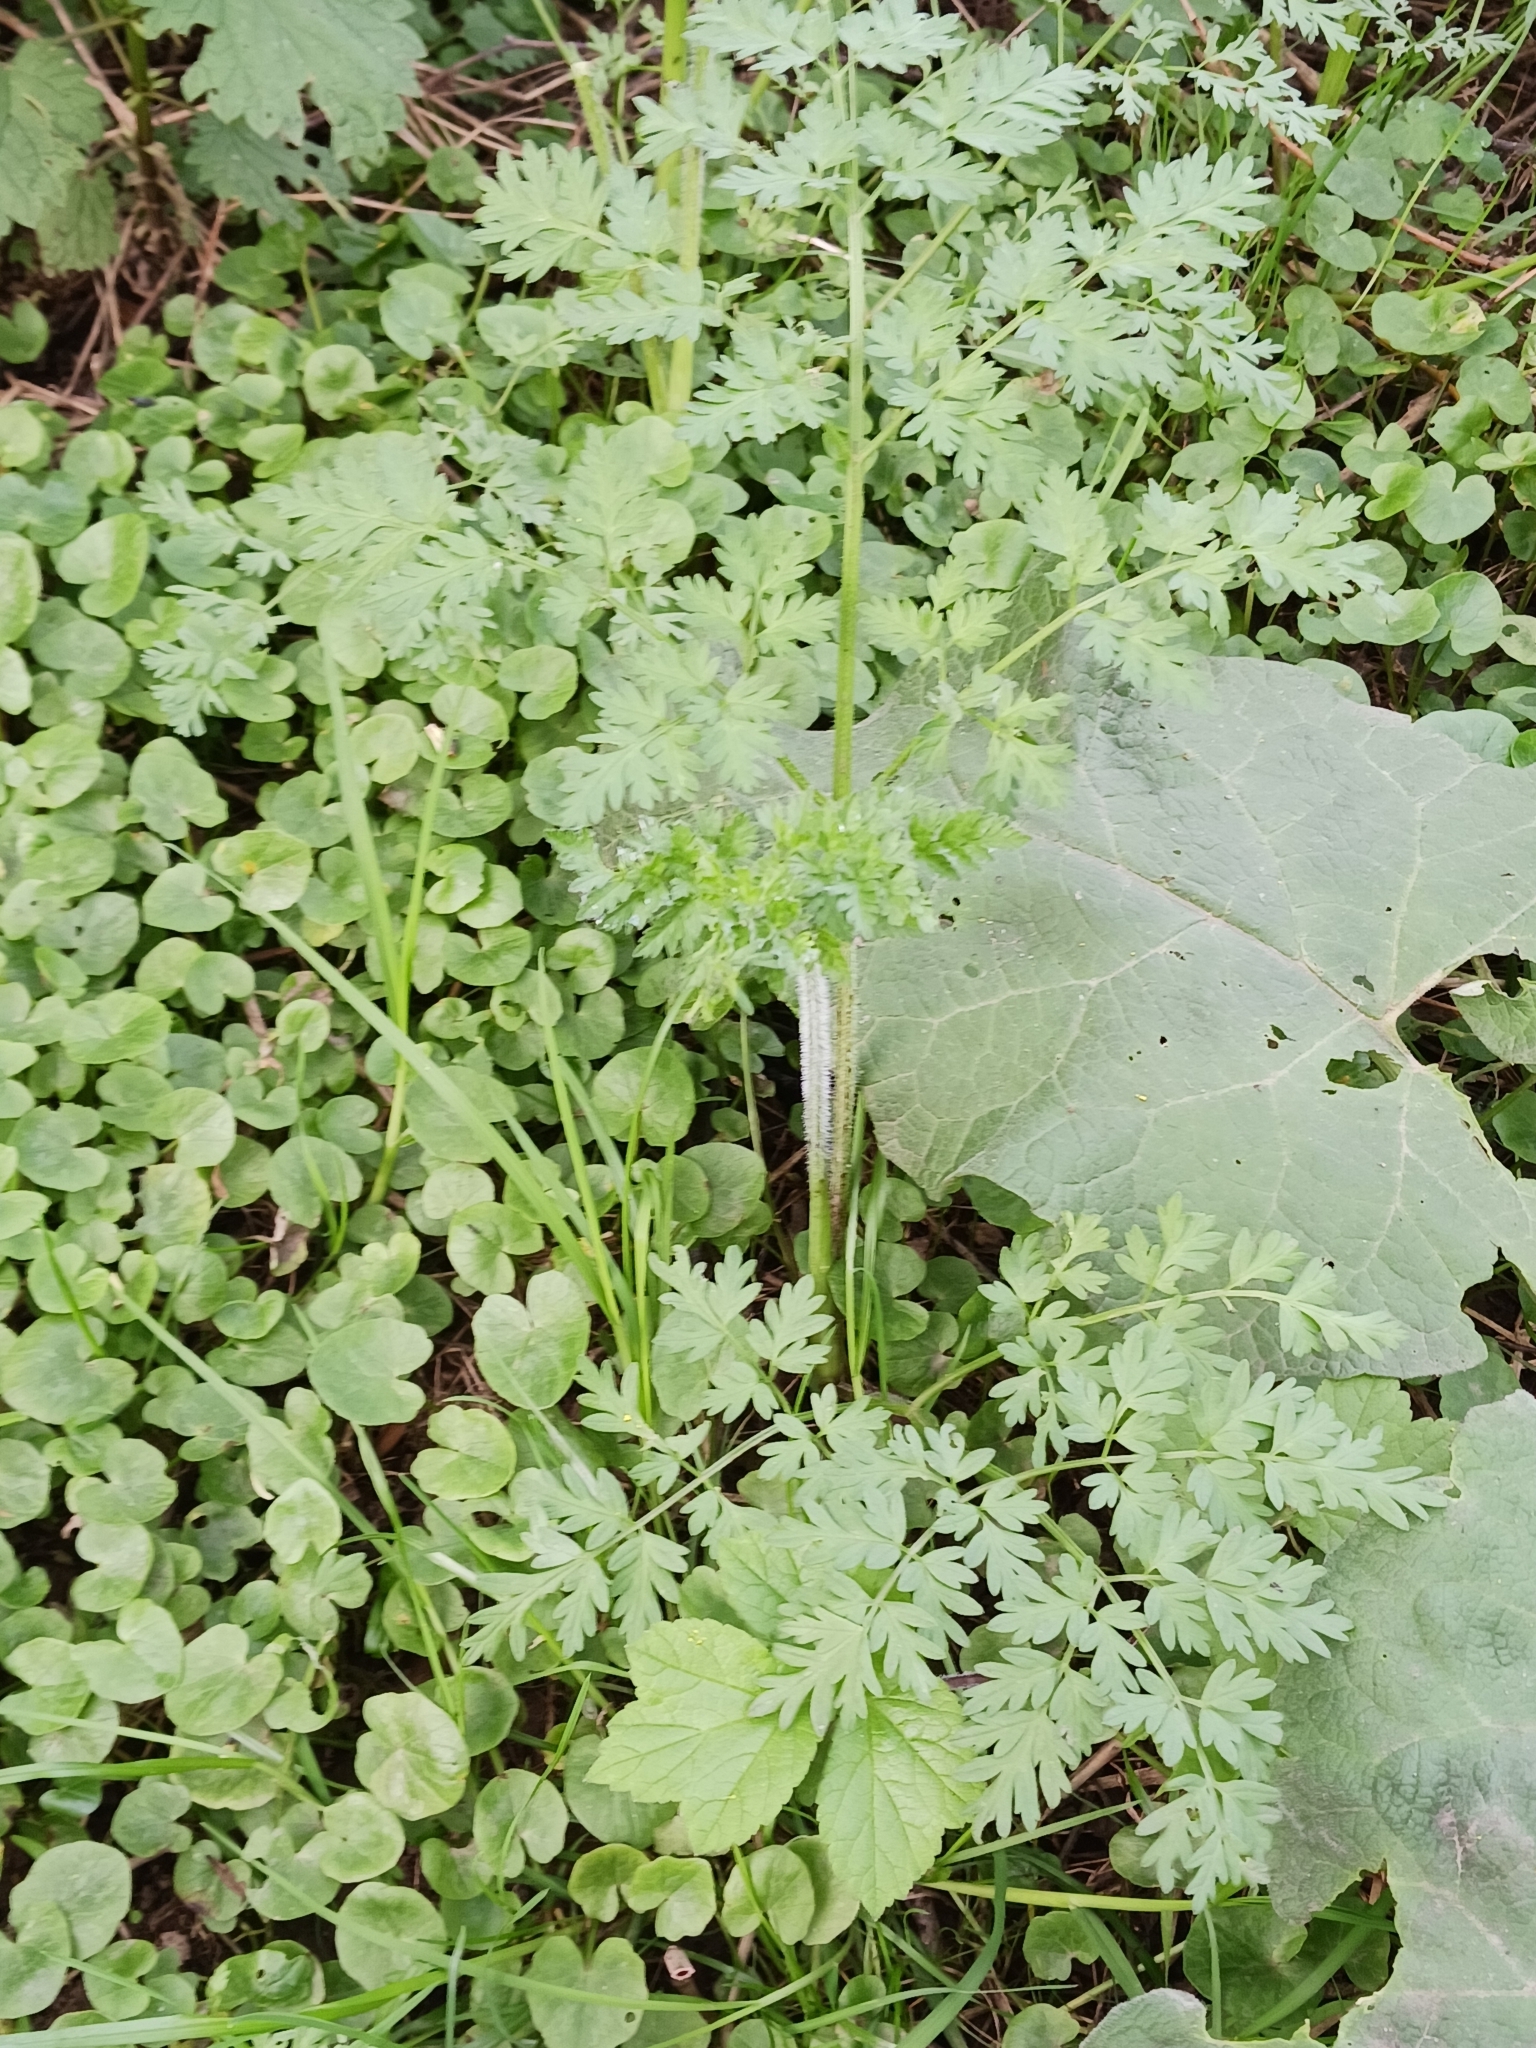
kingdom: Plantae
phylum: Tracheophyta
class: Magnoliopsida
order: Apiales
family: Apiaceae
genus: Aethusa
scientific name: Aethusa cynapium
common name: Fool's parsley
